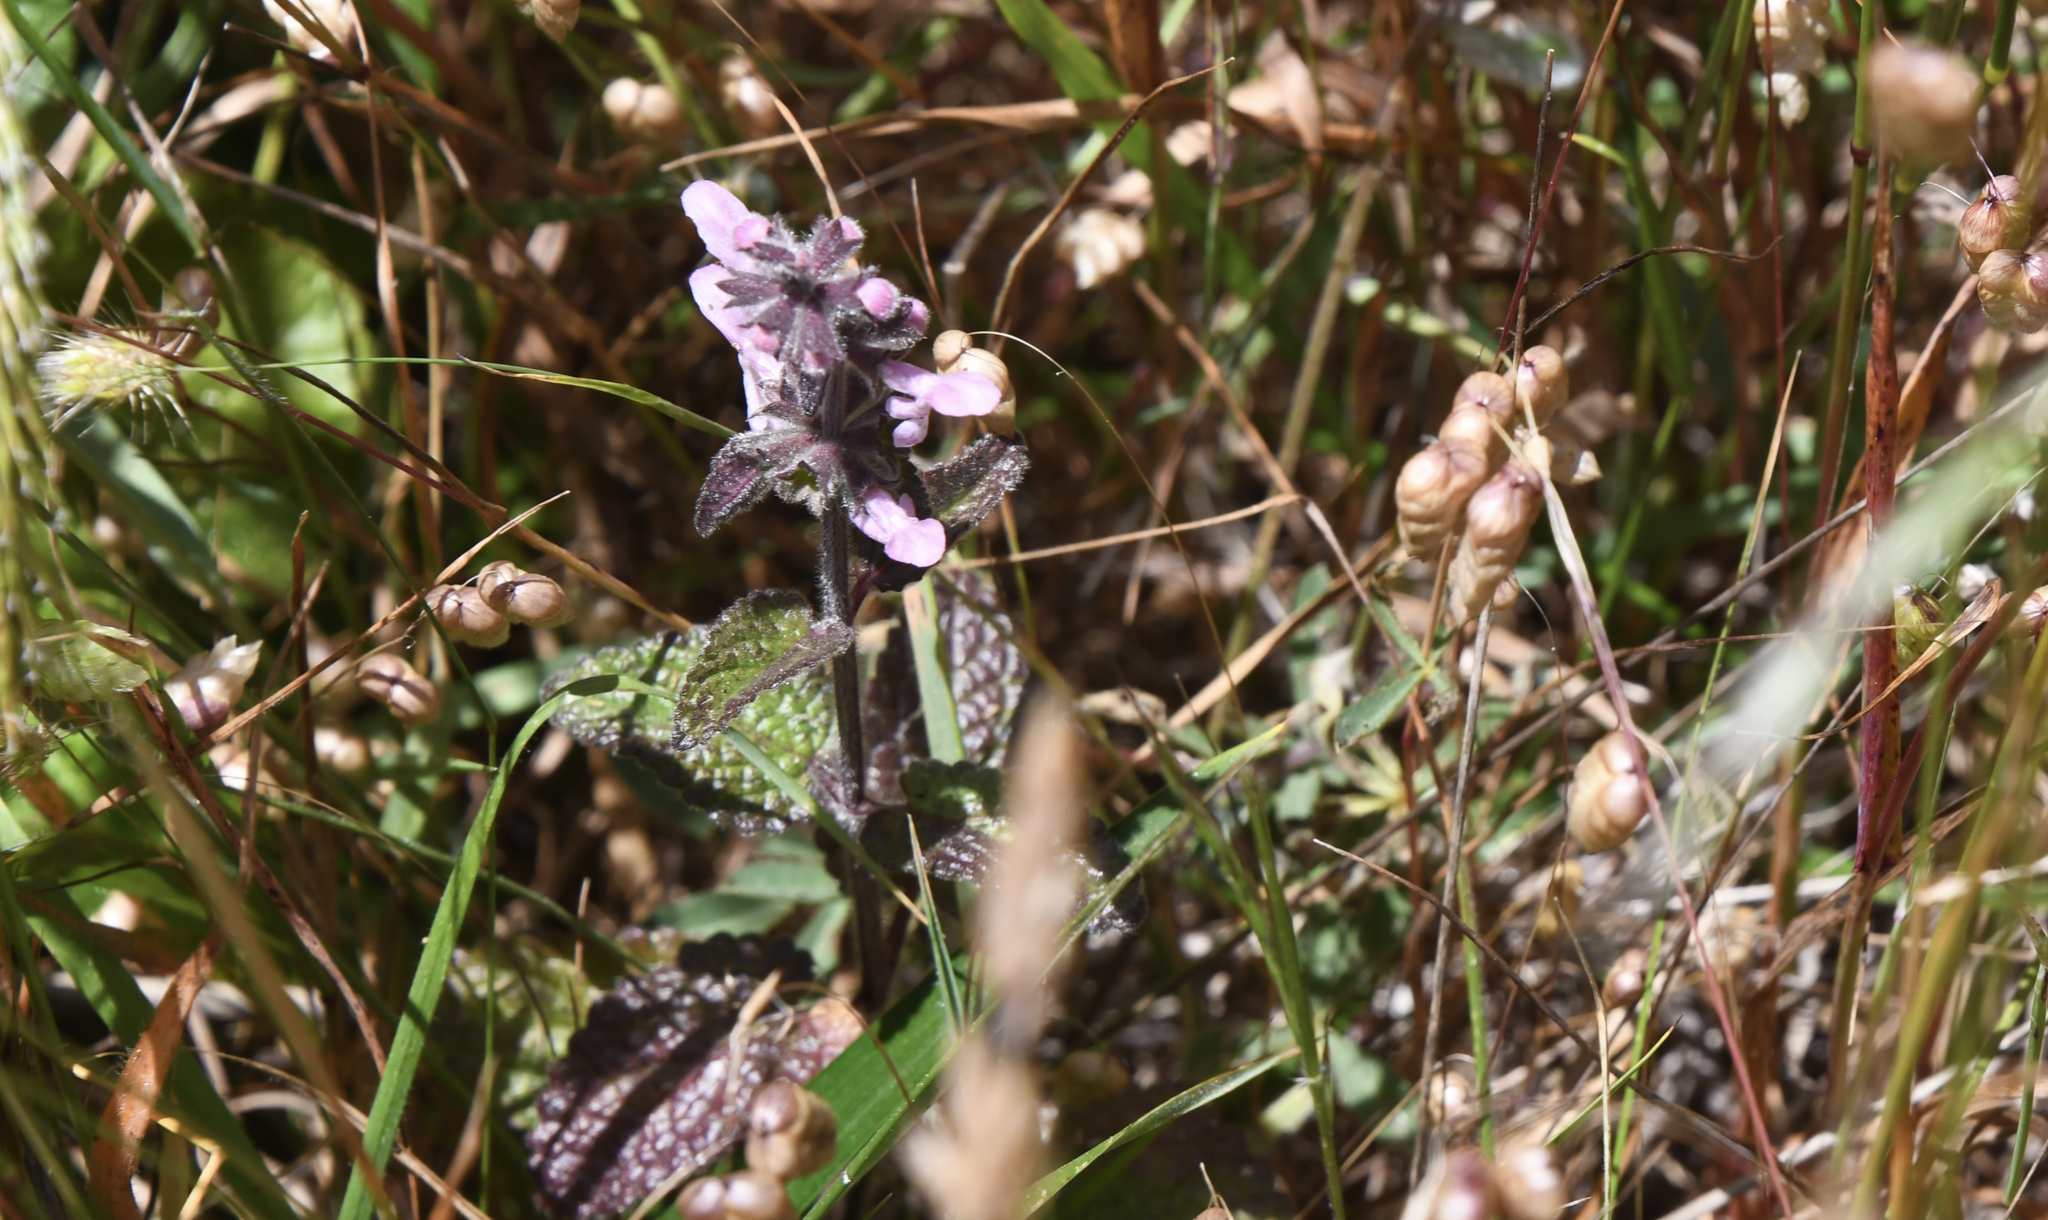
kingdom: Plantae
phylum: Tracheophyta
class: Magnoliopsida
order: Lamiales
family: Lamiaceae
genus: Stachys
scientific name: Stachys rigida
